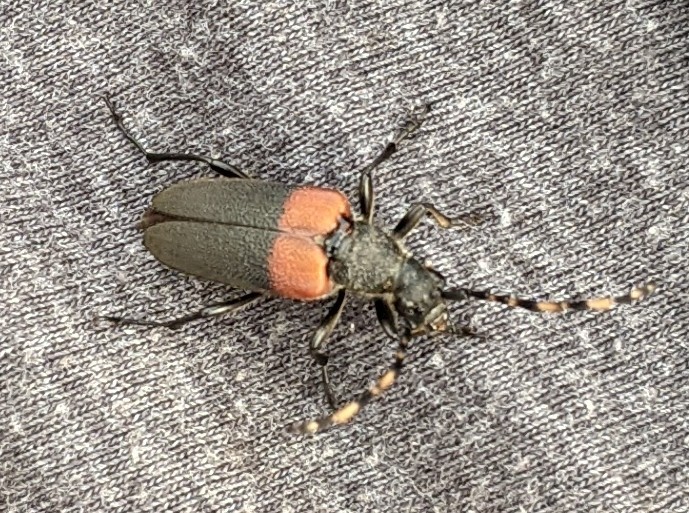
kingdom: Animalia
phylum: Arthropoda
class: Insecta
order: Coleoptera
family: Cerambycidae
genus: Stictoleptura
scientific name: Stictoleptura canadensis
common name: Red-shouldered pine borer
